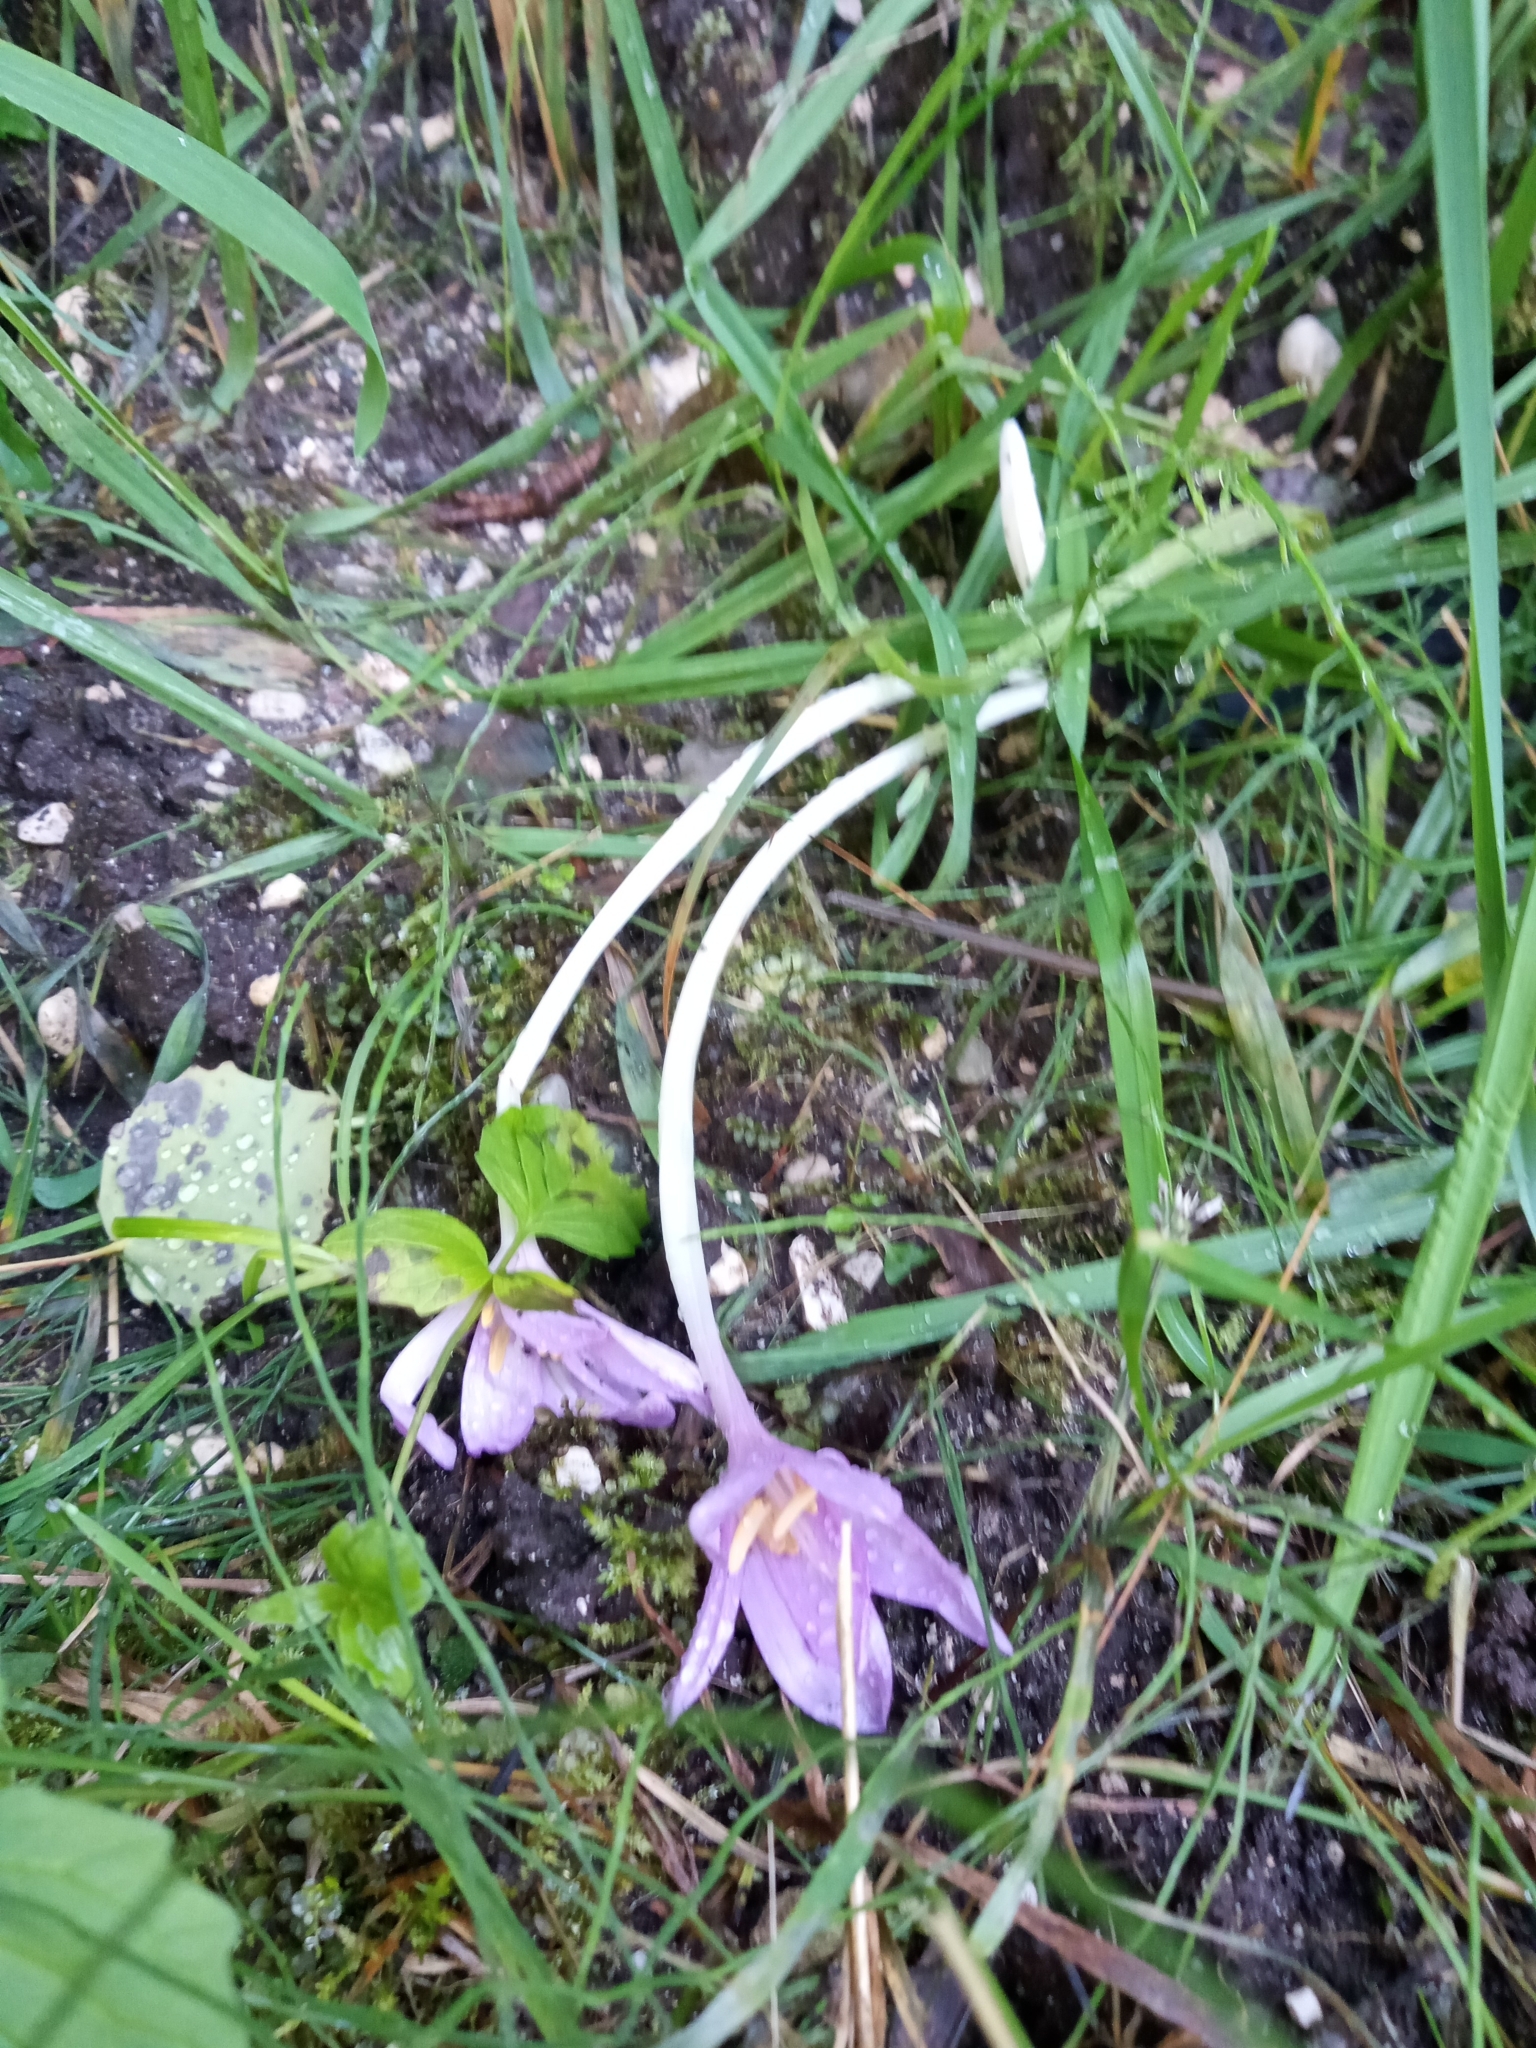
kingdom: Plantae
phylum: Tracheophyta
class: Liliopsida
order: Liliales
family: Colchicaceae
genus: Colchicum
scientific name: Colchicum autumnale
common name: Autumn crocus
